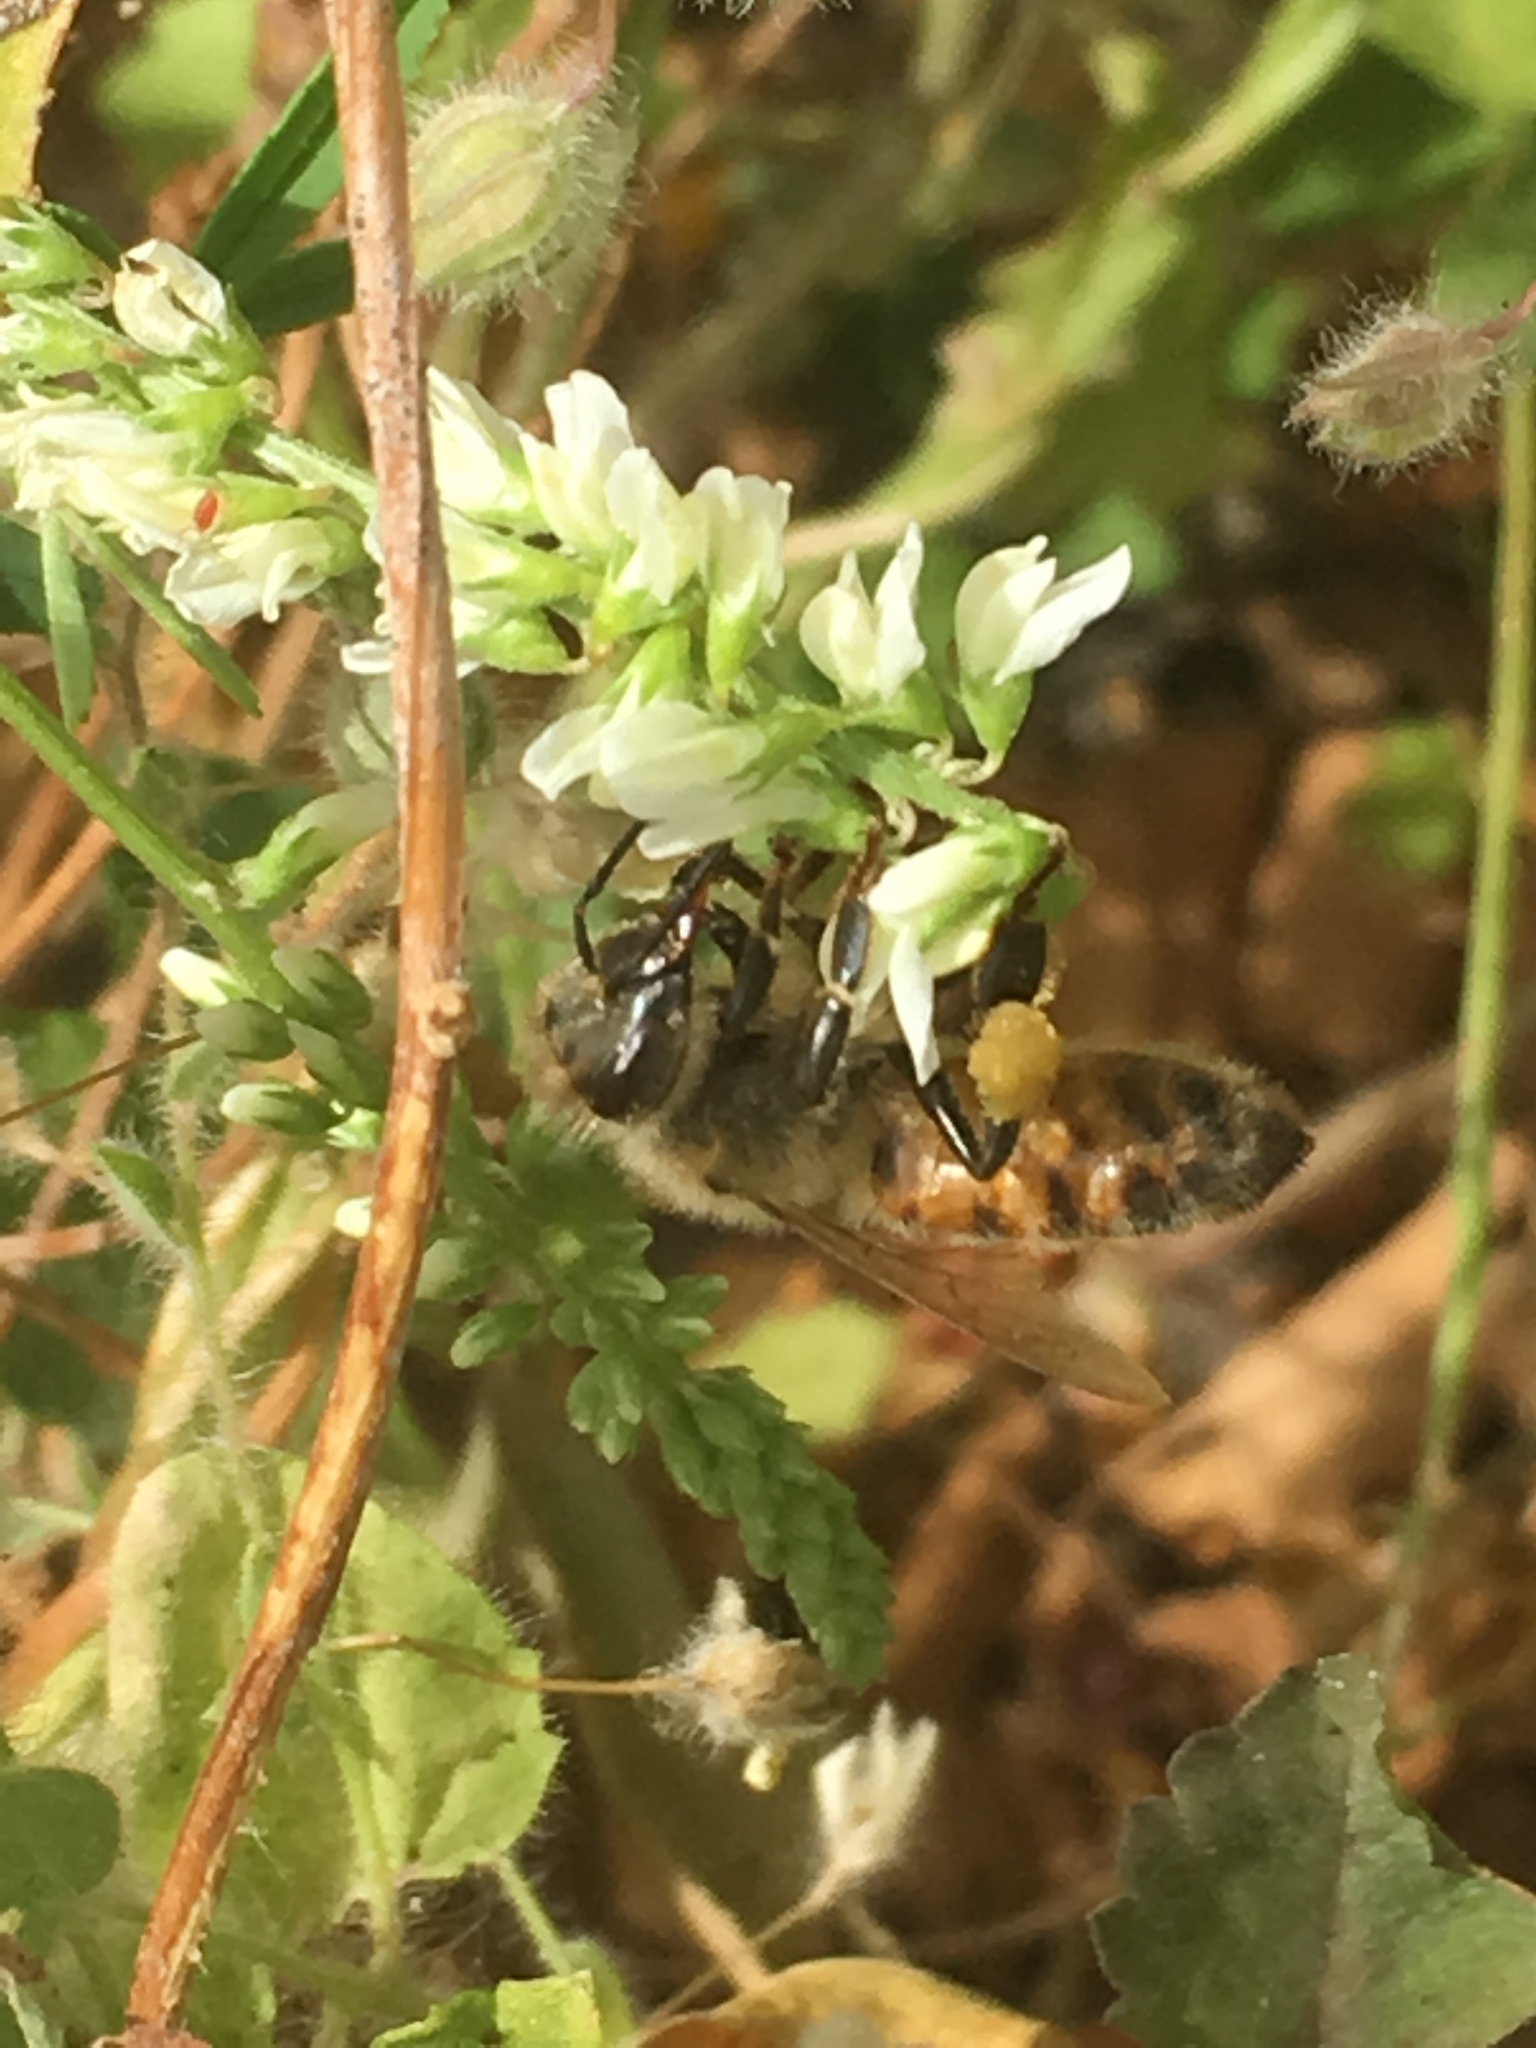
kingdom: Animalia
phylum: Arthropoda
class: Insecta
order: Hymenoptera
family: Apidae
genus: Apis
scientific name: Apis mellifera
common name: Honey bee
